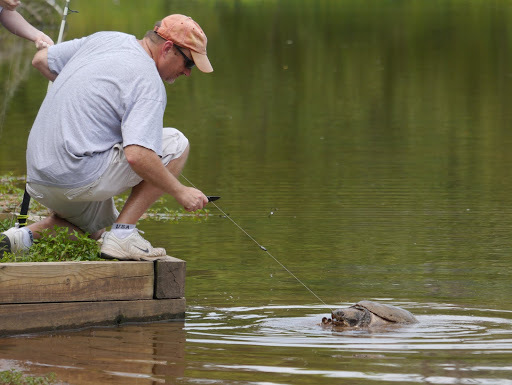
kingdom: Animalia
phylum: Chordata
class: Testudines
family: Chelydridae
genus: Chelydra
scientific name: Chelydra serpentina
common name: Common snapping turtle
